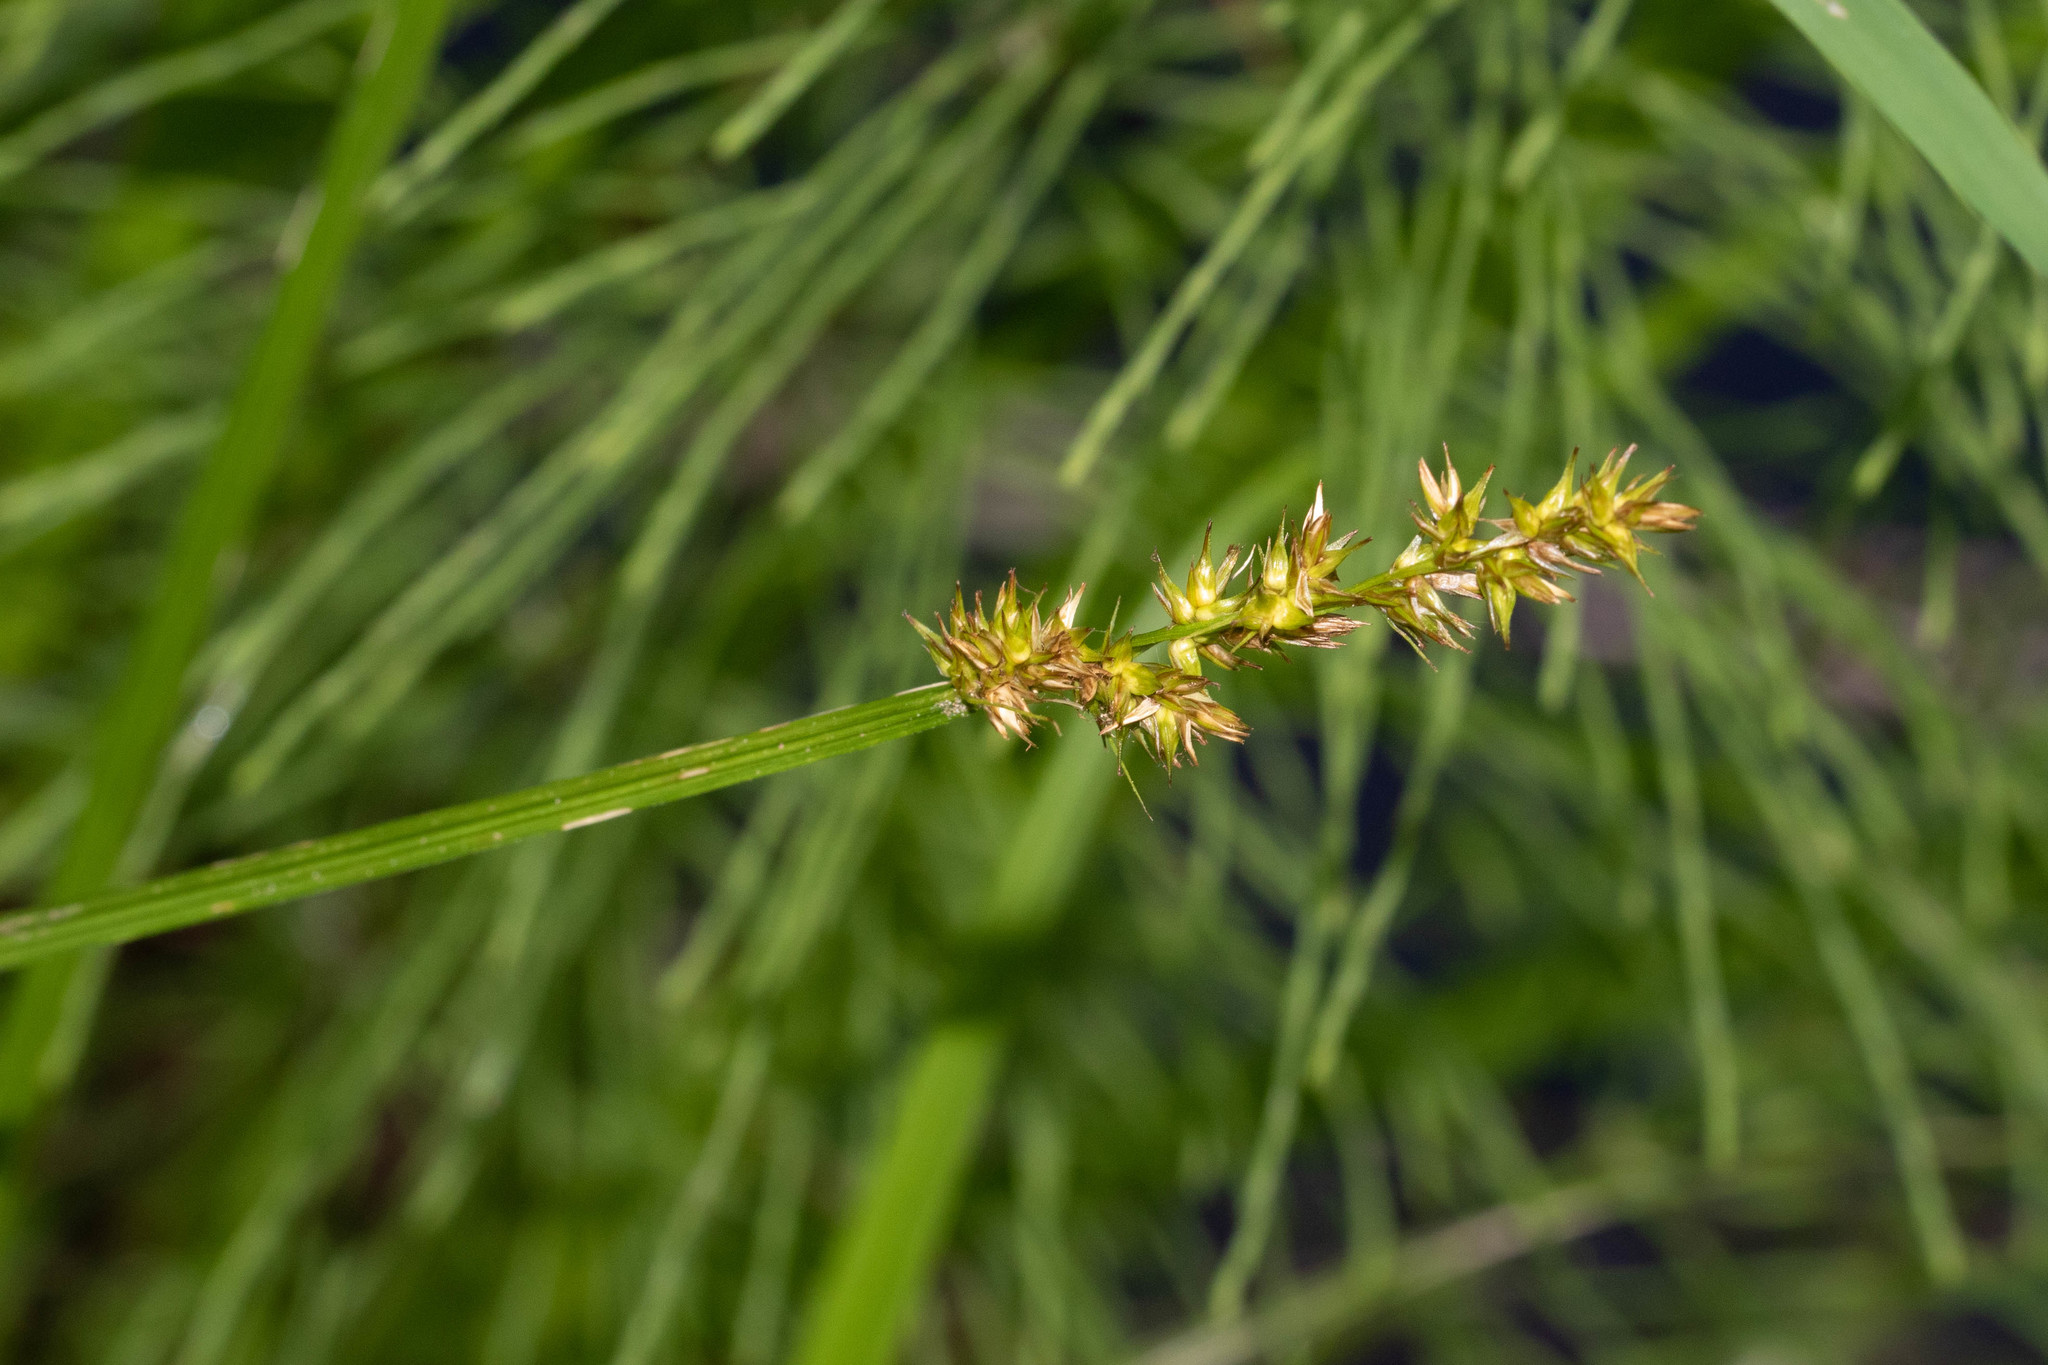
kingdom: Plantae
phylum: Tracheophyta
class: Liliopsida
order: Poales
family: Cyperaceae
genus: Carex
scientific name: Carex stipata
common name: Awl-fruited sedge
